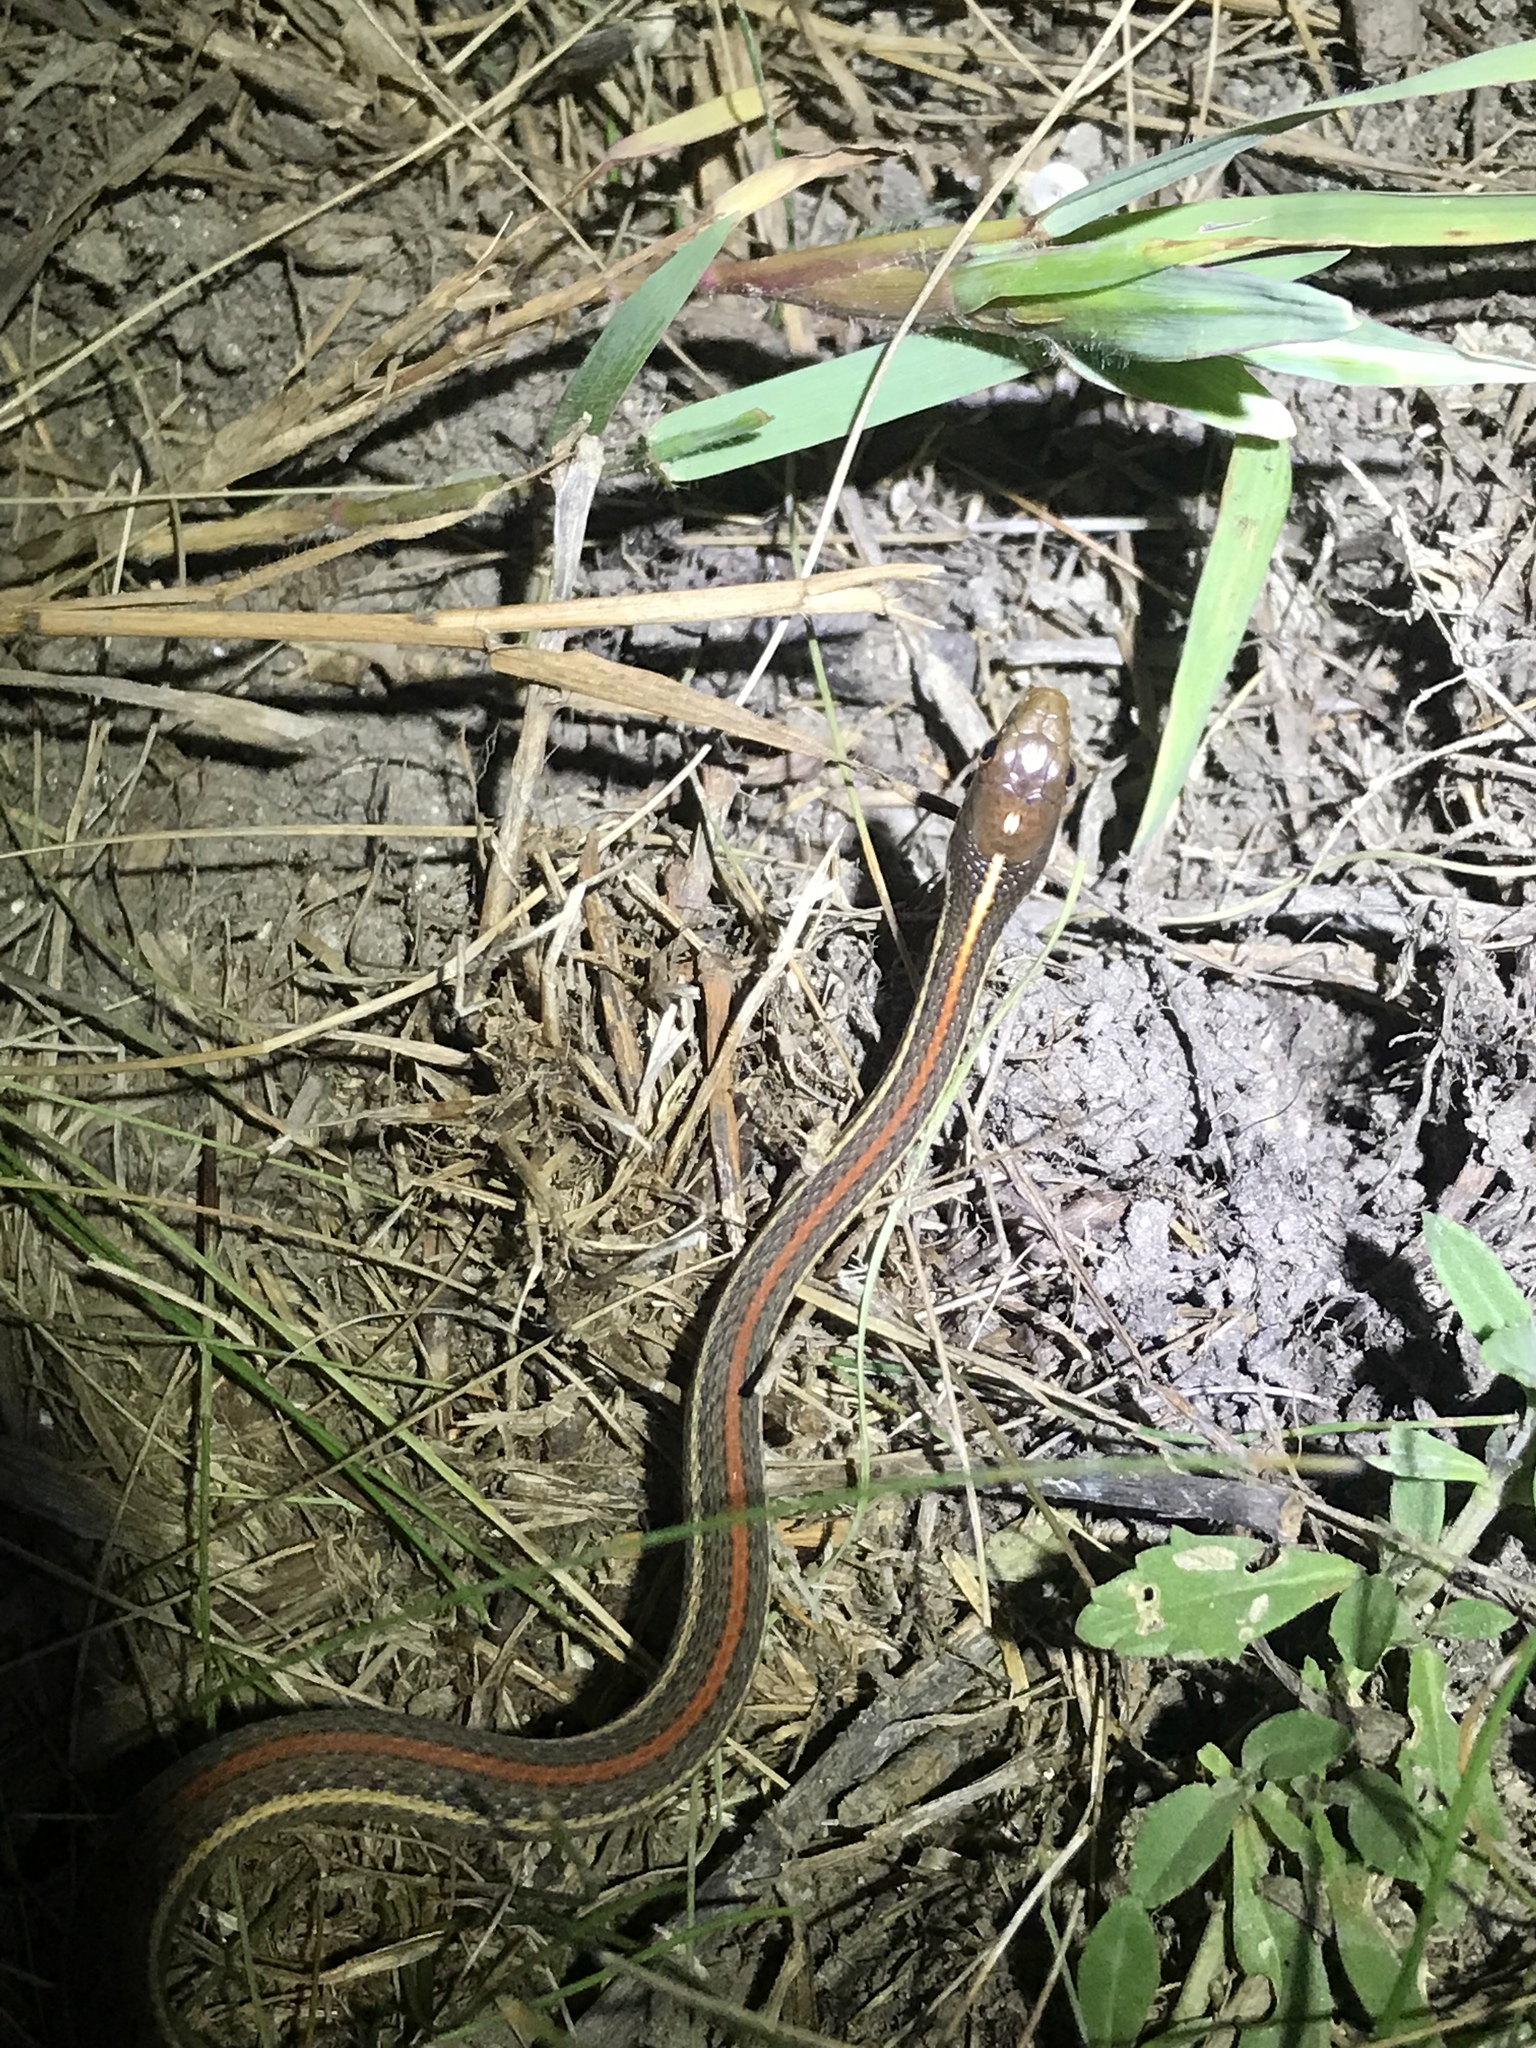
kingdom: Animalia
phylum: Chordata
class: Squamata
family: Colubridae
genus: Thamnophis
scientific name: Thamnophis proximus
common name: Western ribbon snake
